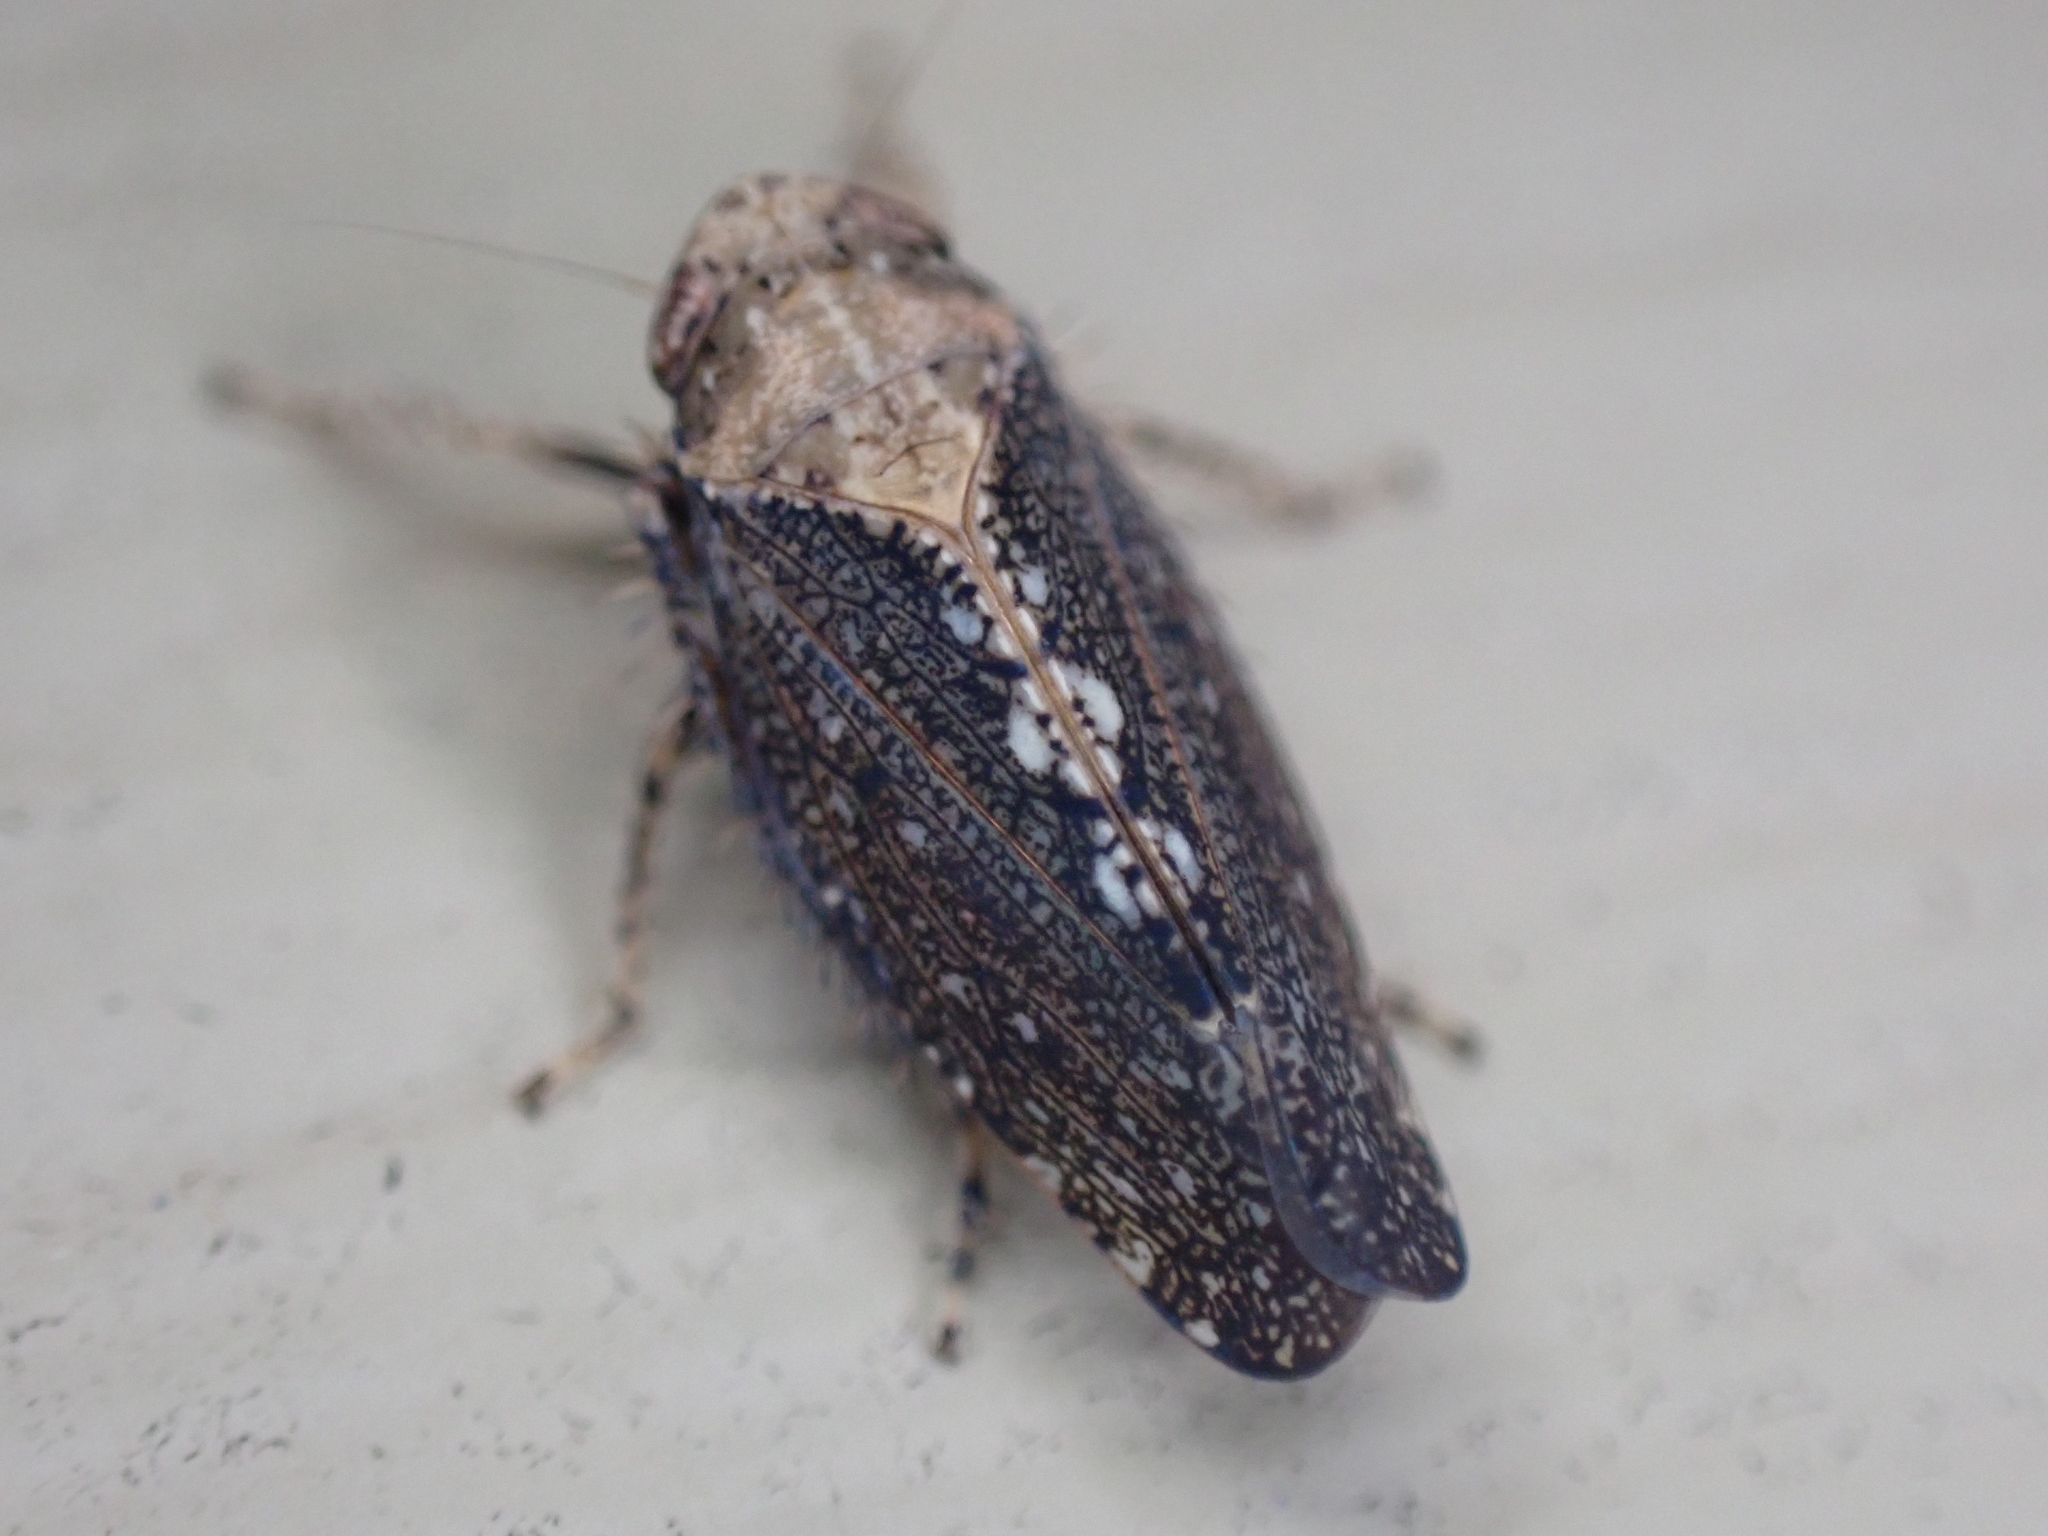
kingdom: Animalia
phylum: Arthropoda
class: Insecta
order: Hemiptera
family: Cicadellidae
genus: Excultanus
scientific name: Excultanus excultus
